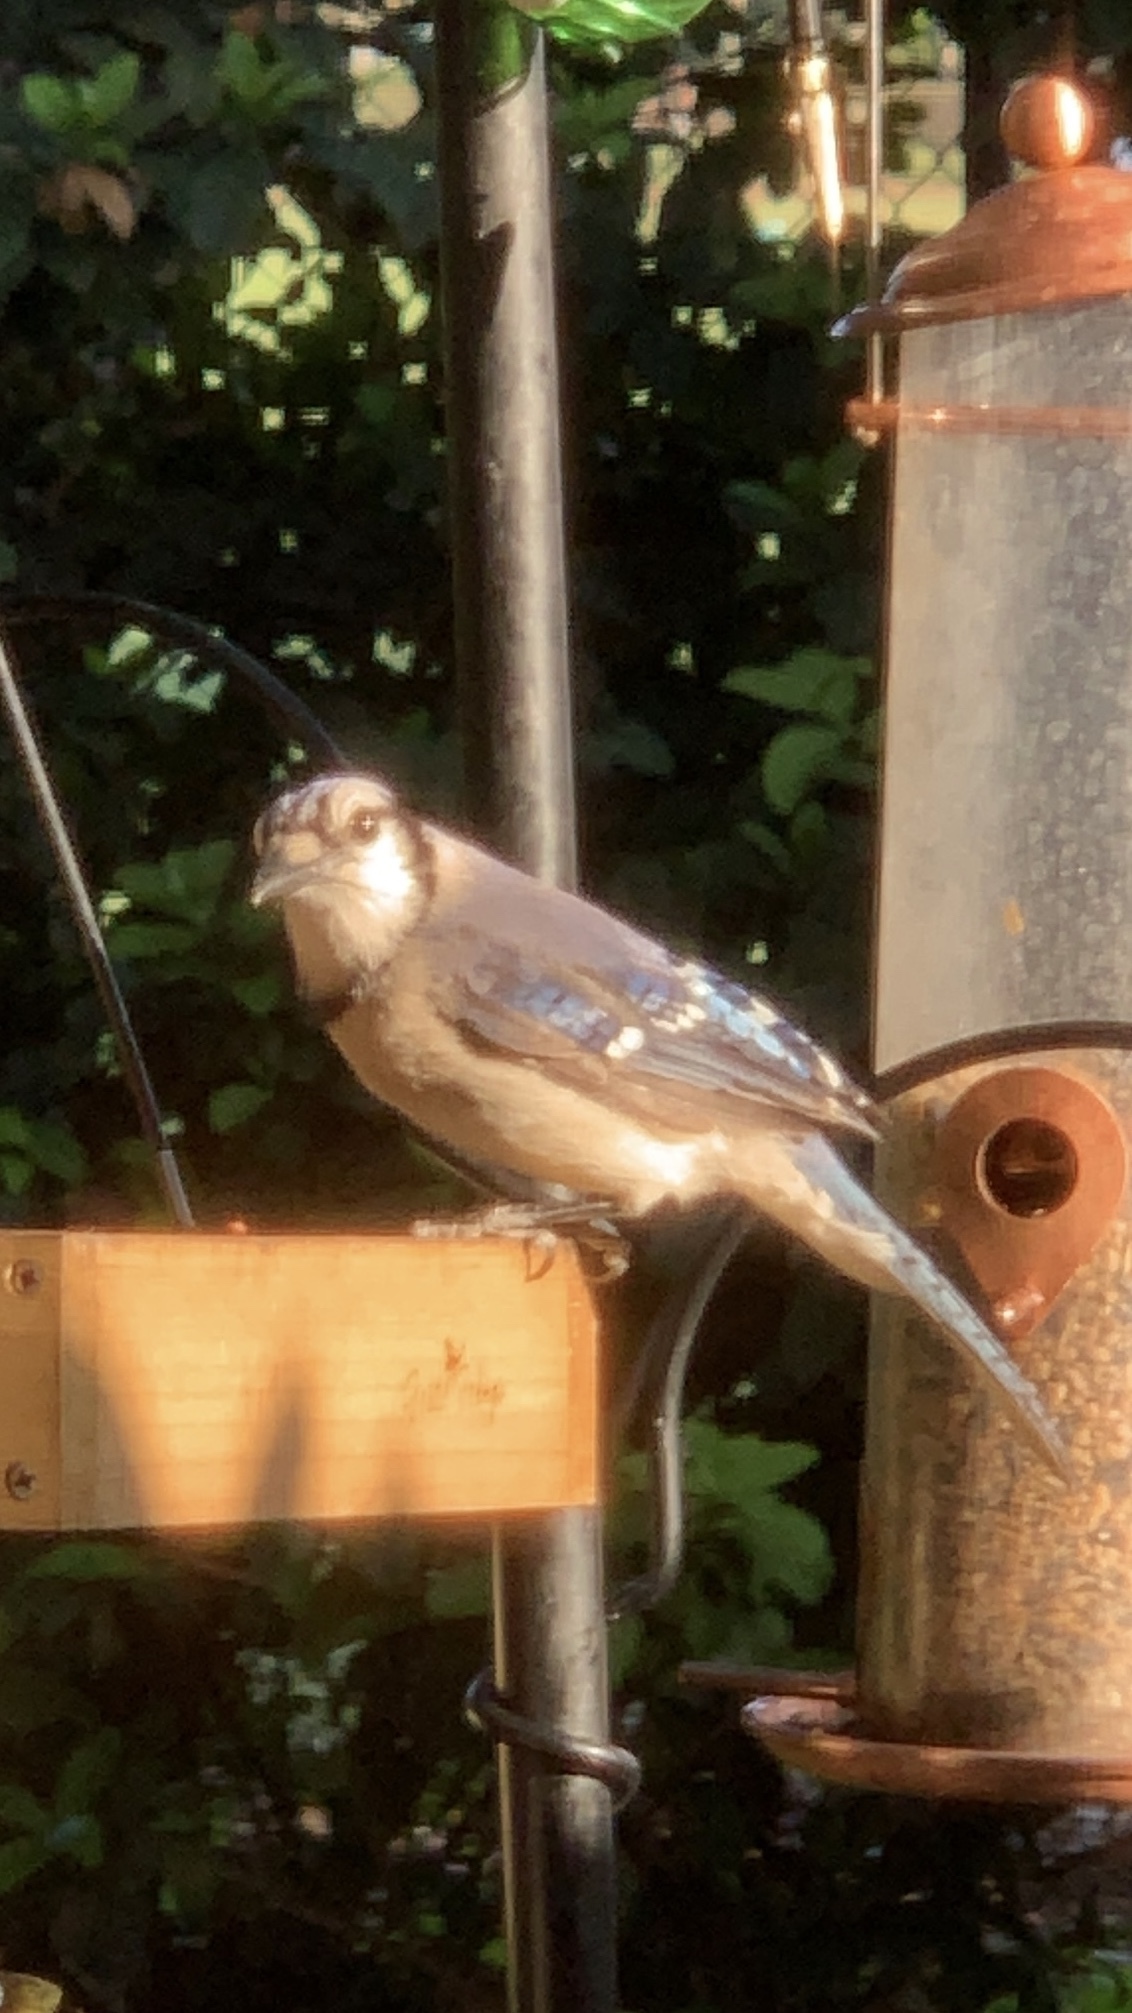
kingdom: Animalia
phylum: Chordata
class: Aves
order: Passeriformes
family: Corvidae
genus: Cyanocitta
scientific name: Cyanocitta cristata
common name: Blue jay
